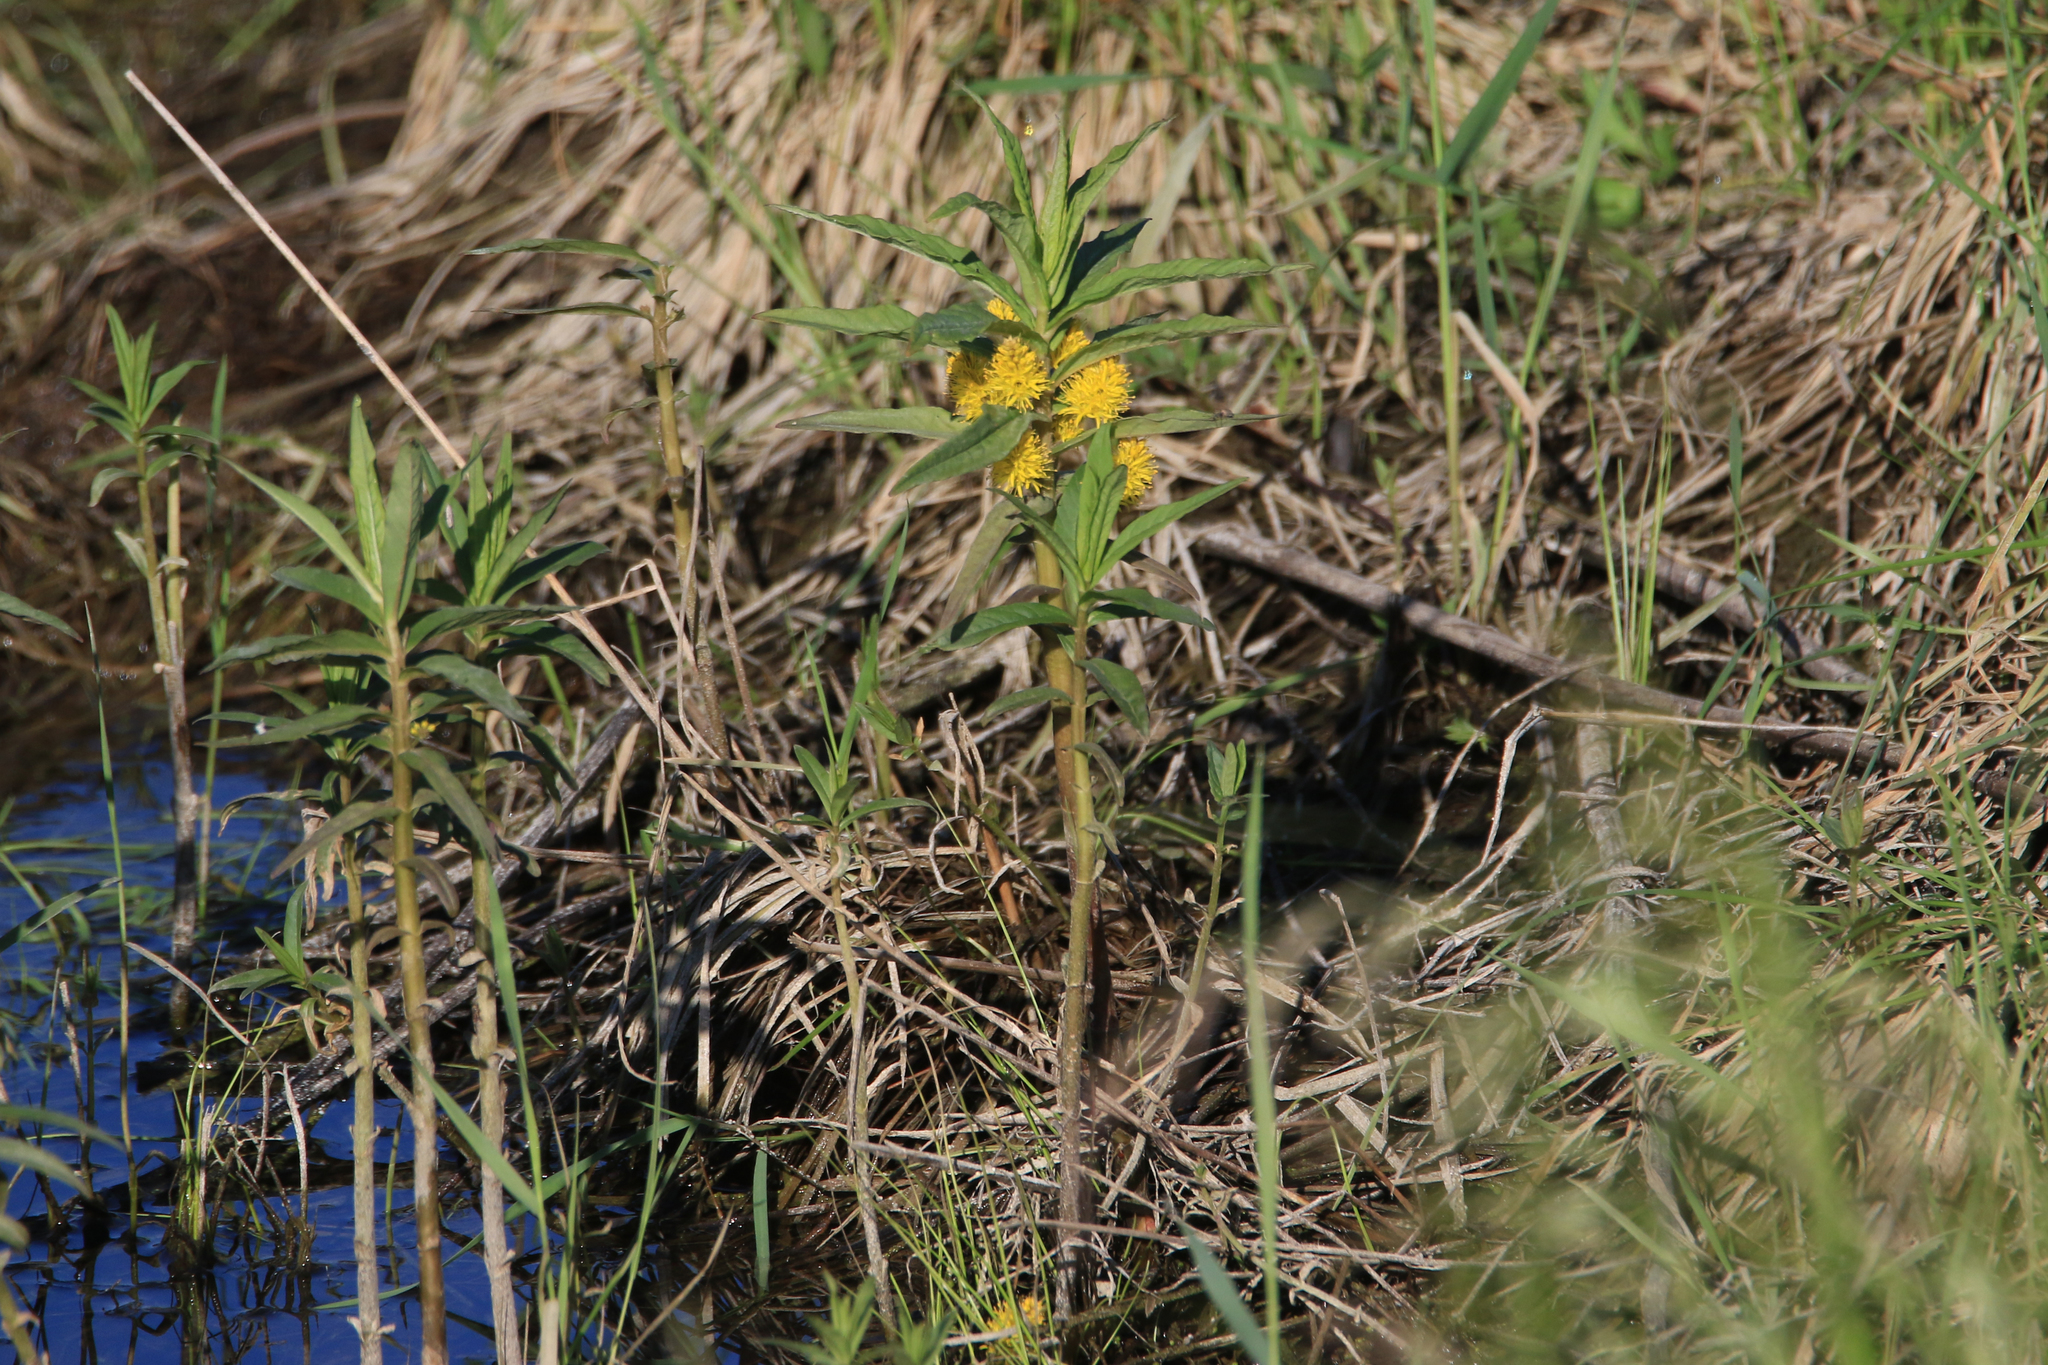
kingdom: Plantae
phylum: Tracheophyta
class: Magnoliopsida
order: Ericales
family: Primulaceae
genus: Lysimachia
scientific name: Lysimachia thyrsiflora
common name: Tufted loosestrife
